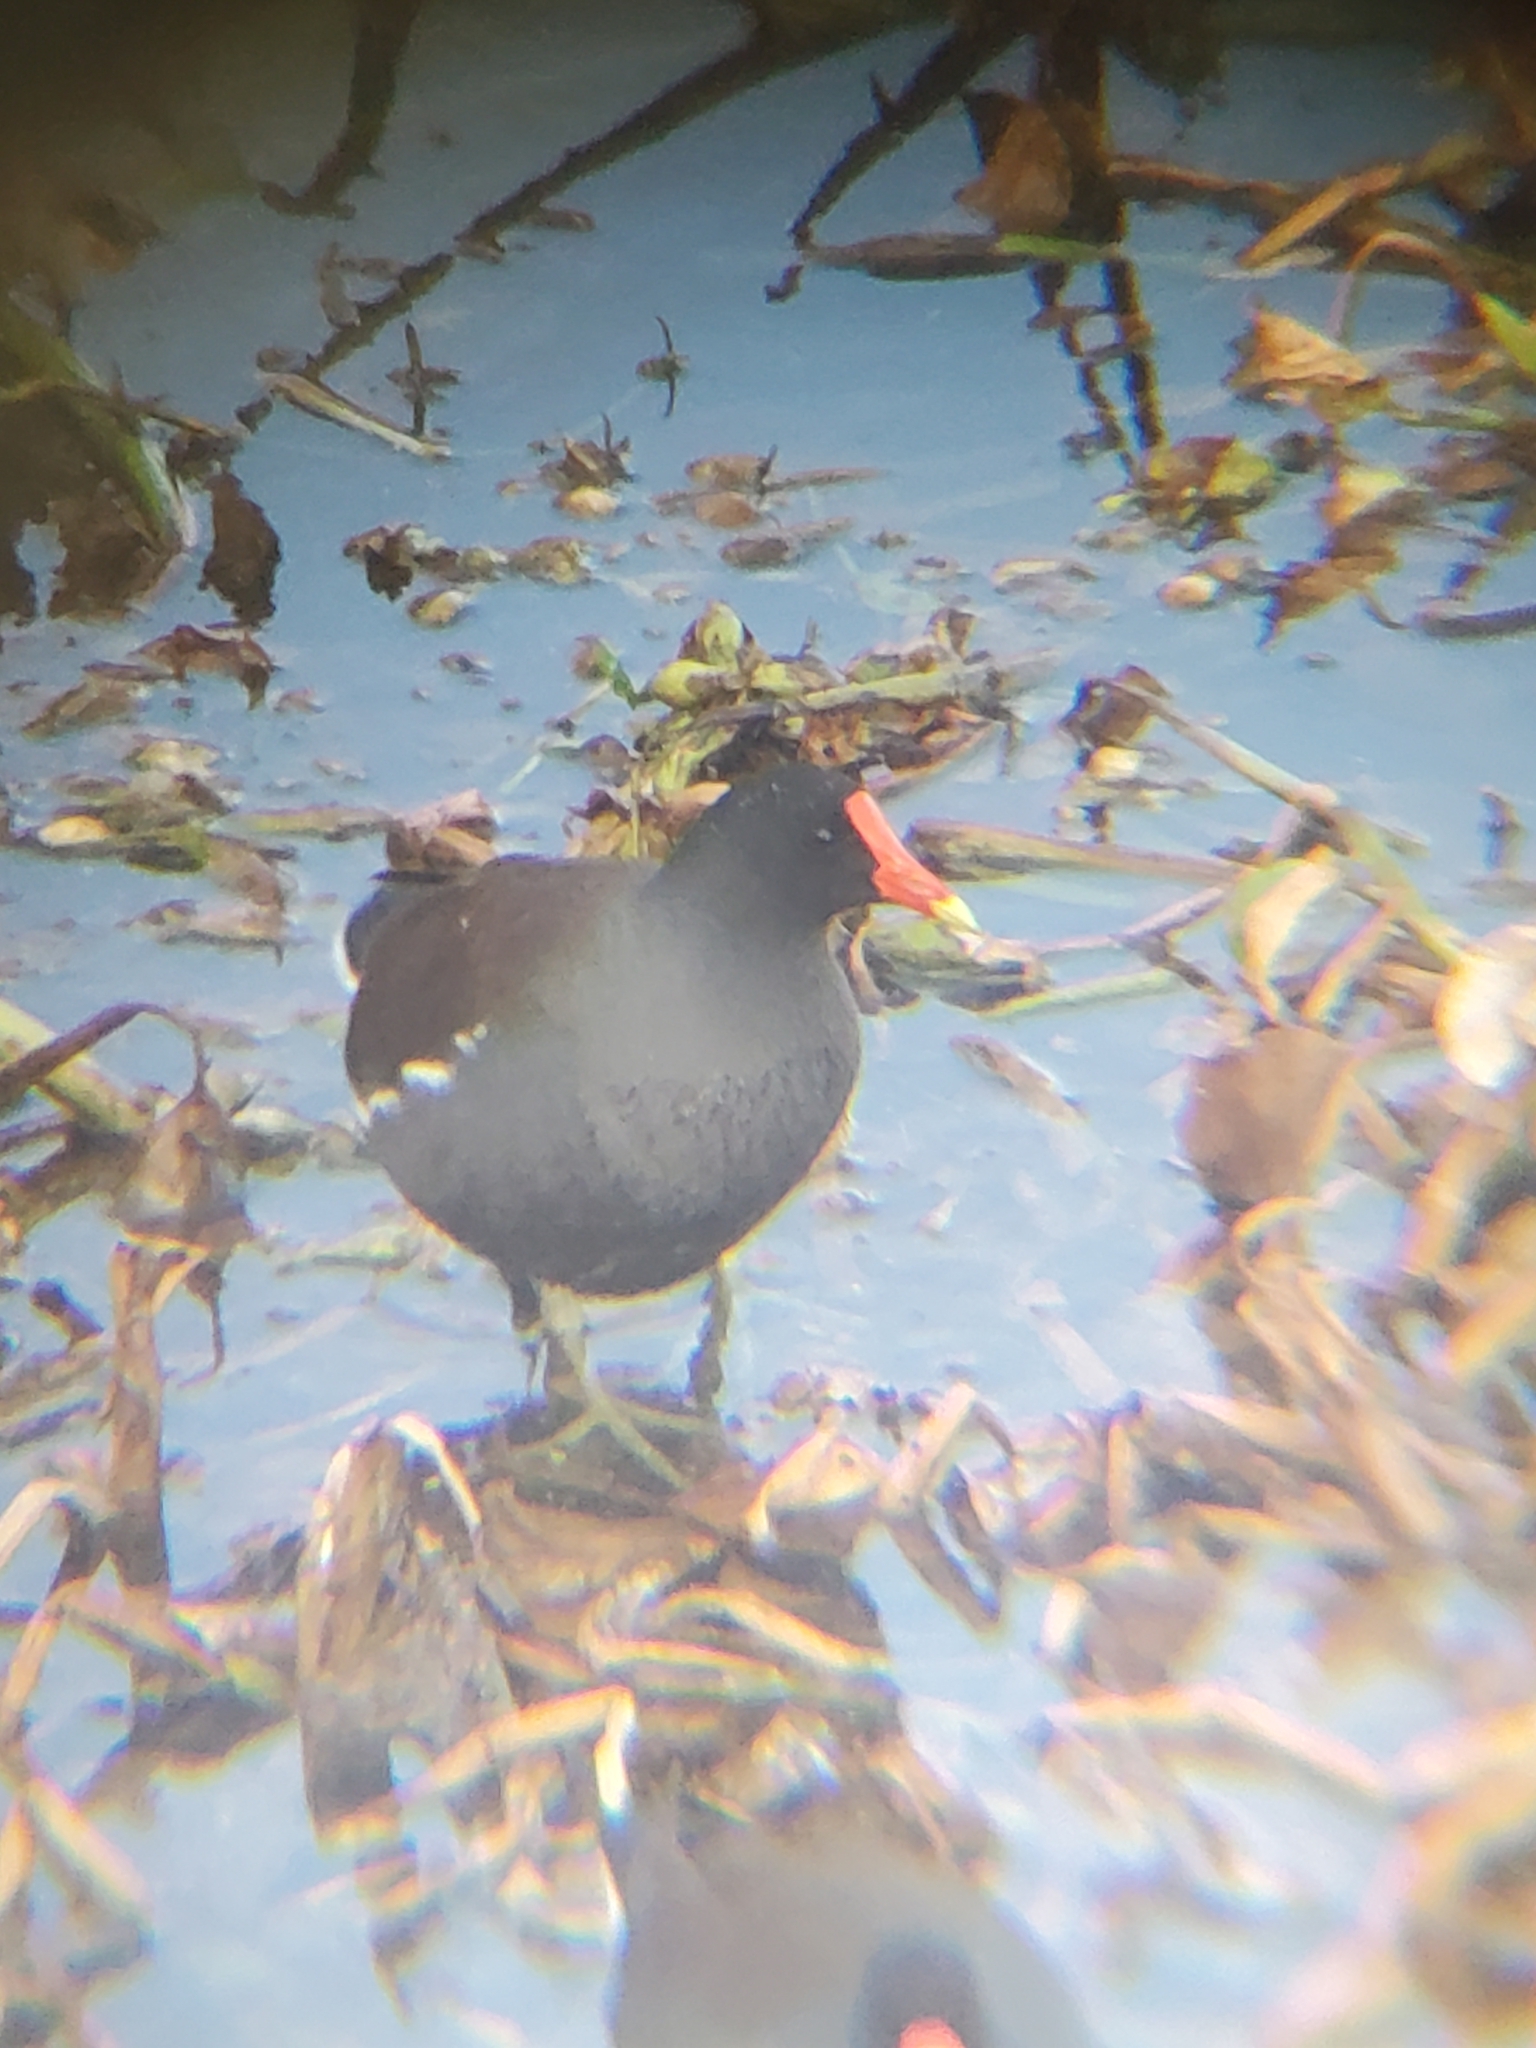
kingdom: Animalia
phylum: Chordata
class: Aves
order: Gruiformes
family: Rallidae
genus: Gallinula
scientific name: Gallinula chloropus
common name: Common moorhen
